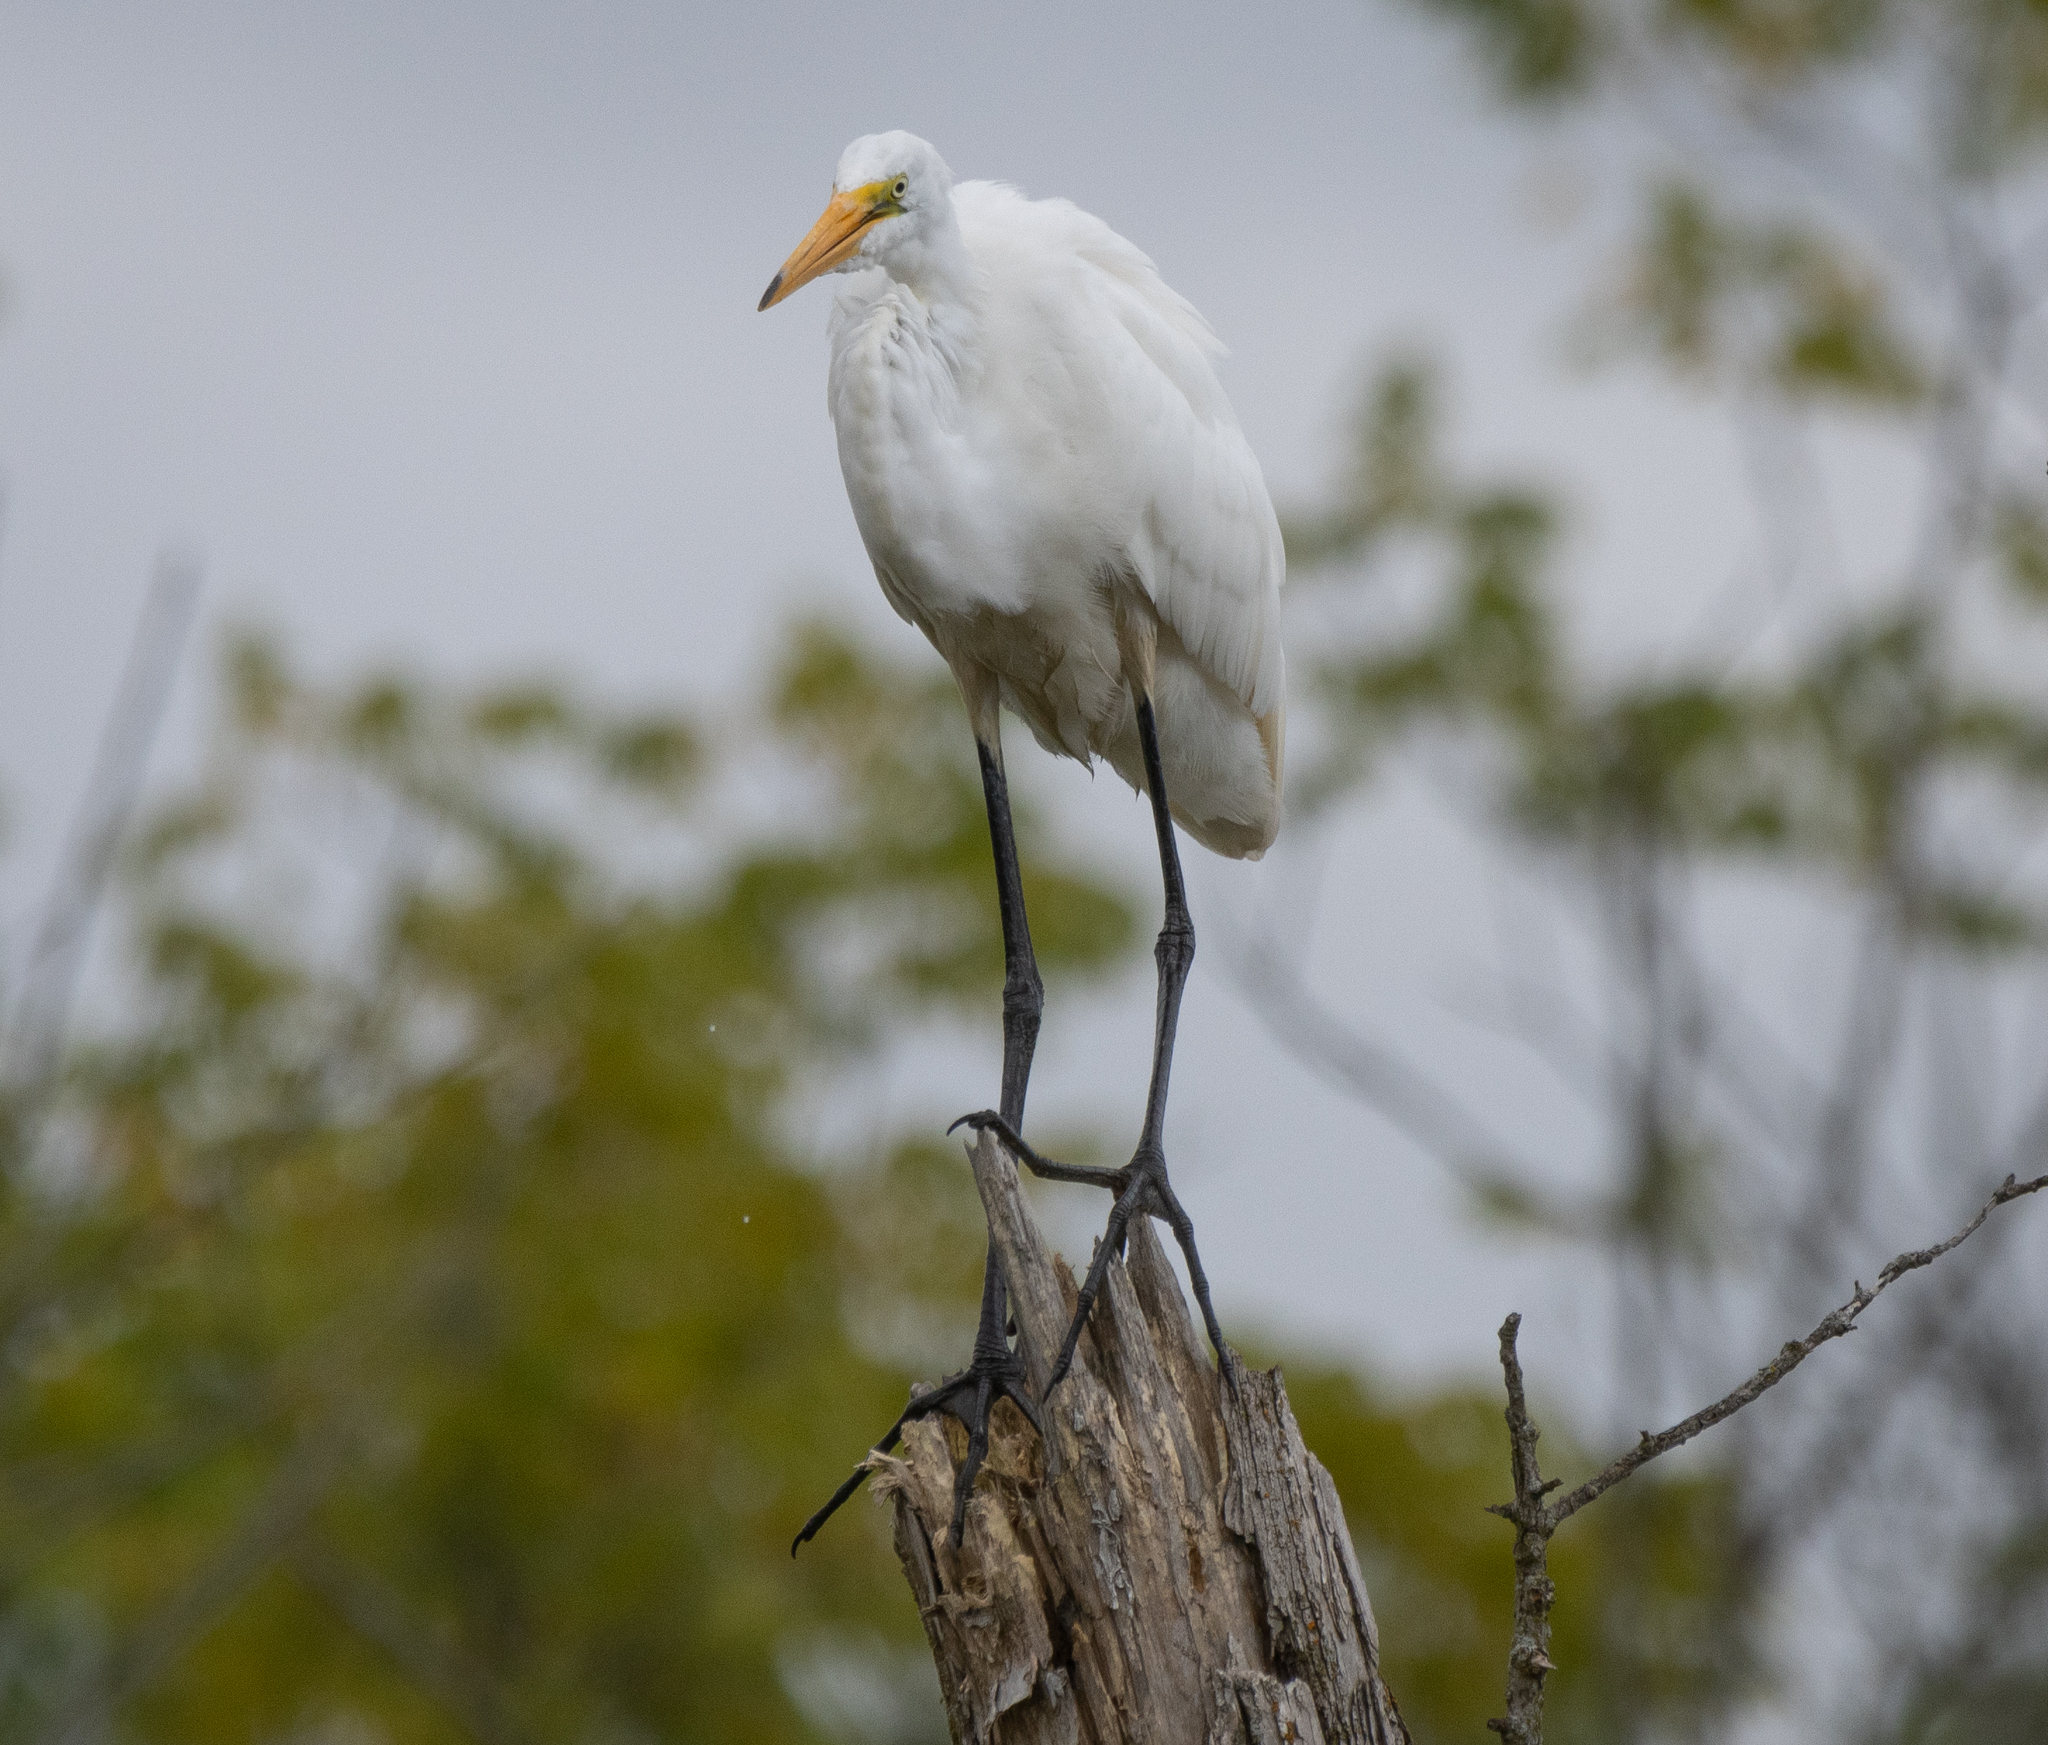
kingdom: Animalia
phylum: Chordata
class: Aves
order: Pelecaniformes
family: Ardeidae
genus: Ardea
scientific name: Ardea alba
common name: Great egret
